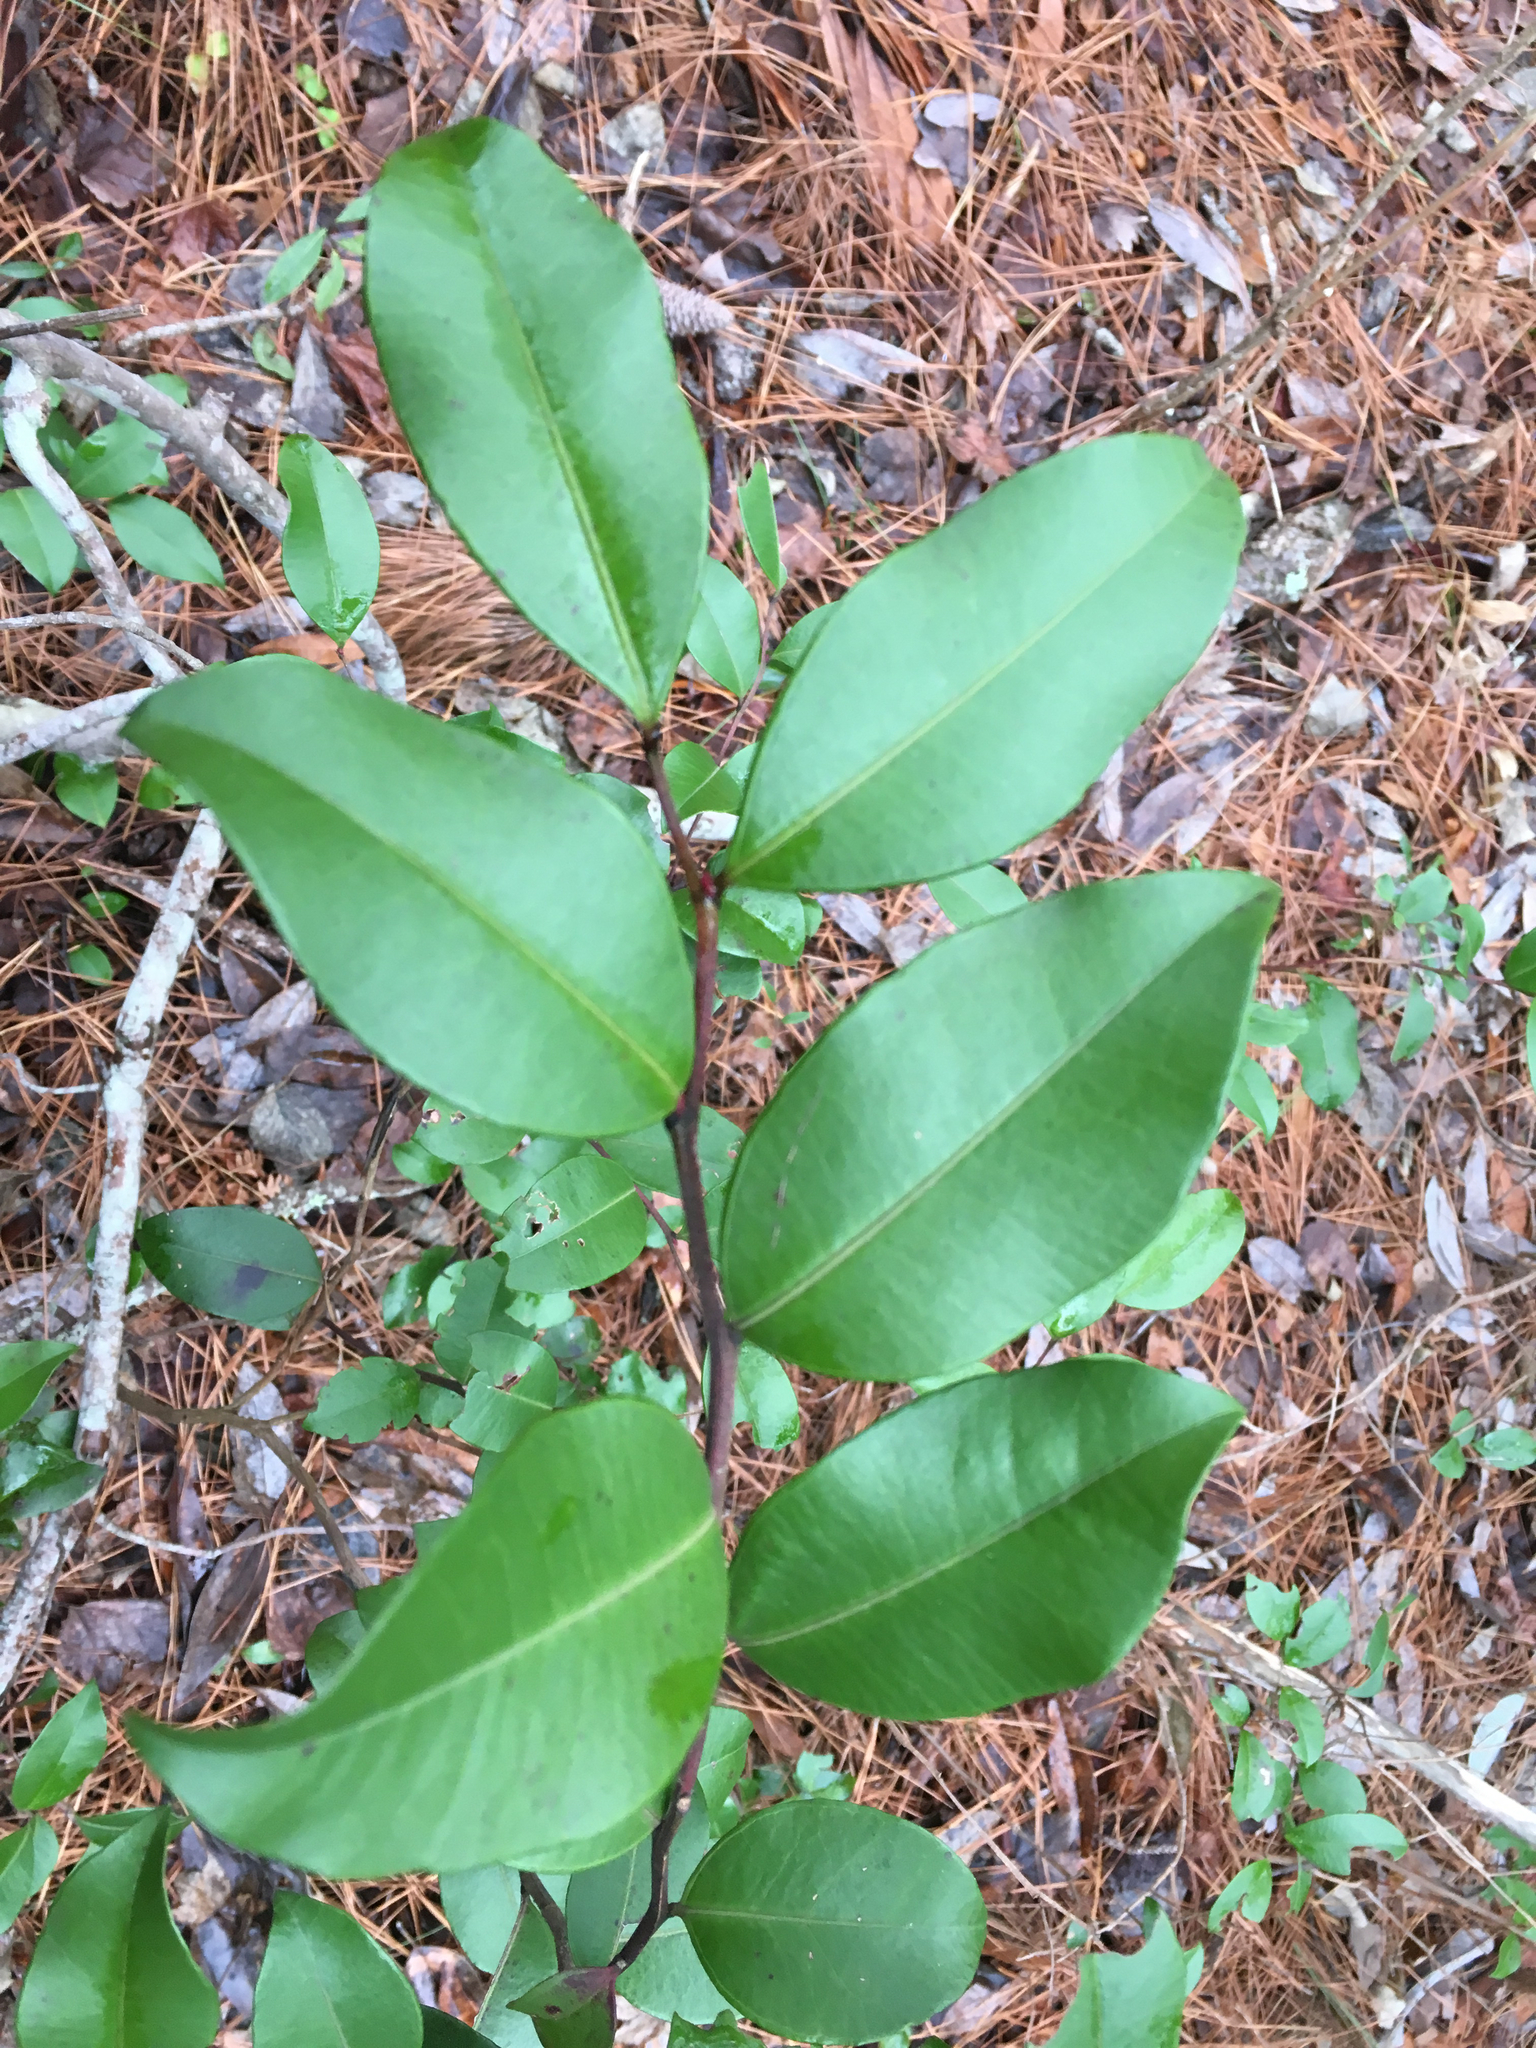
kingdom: Plantae
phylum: Tracheophyta
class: Magnoliopsida
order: Ericales
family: Ericaceae
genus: Lyonia
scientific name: Lyonia lucida
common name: Fetterbush
